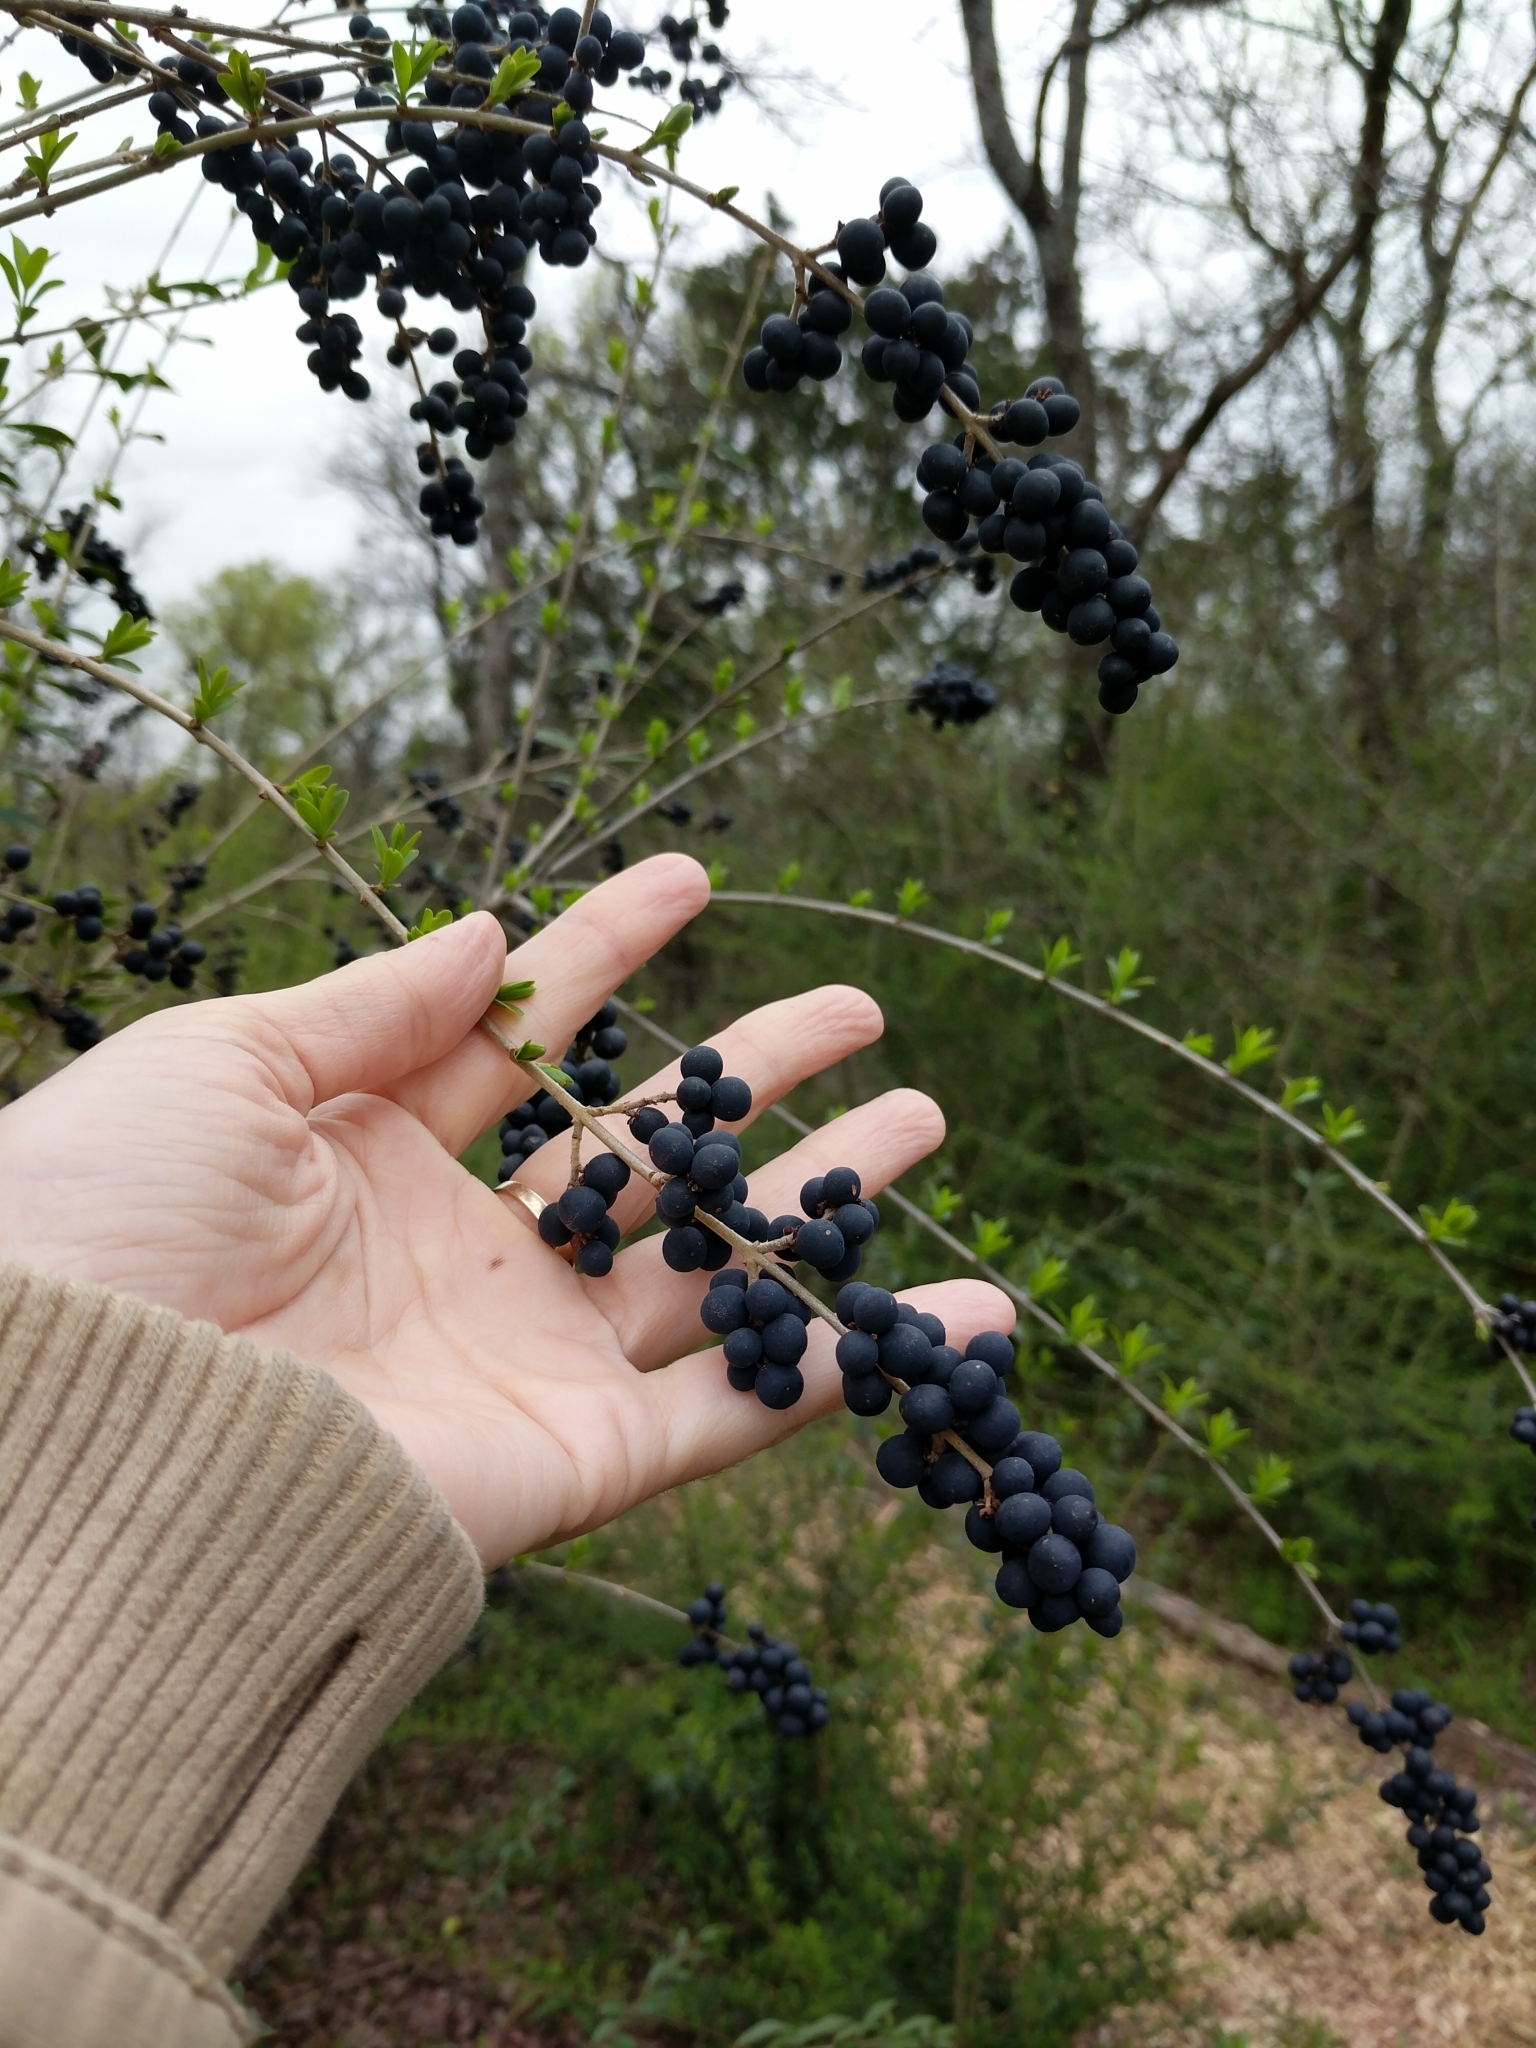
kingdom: Plantae
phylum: Tracheophyta
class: Magnoliopsida
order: Lamiales
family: Oleaceae
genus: Ligustrum
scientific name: Ligustrum quihoui
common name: Waxyleaf privet
